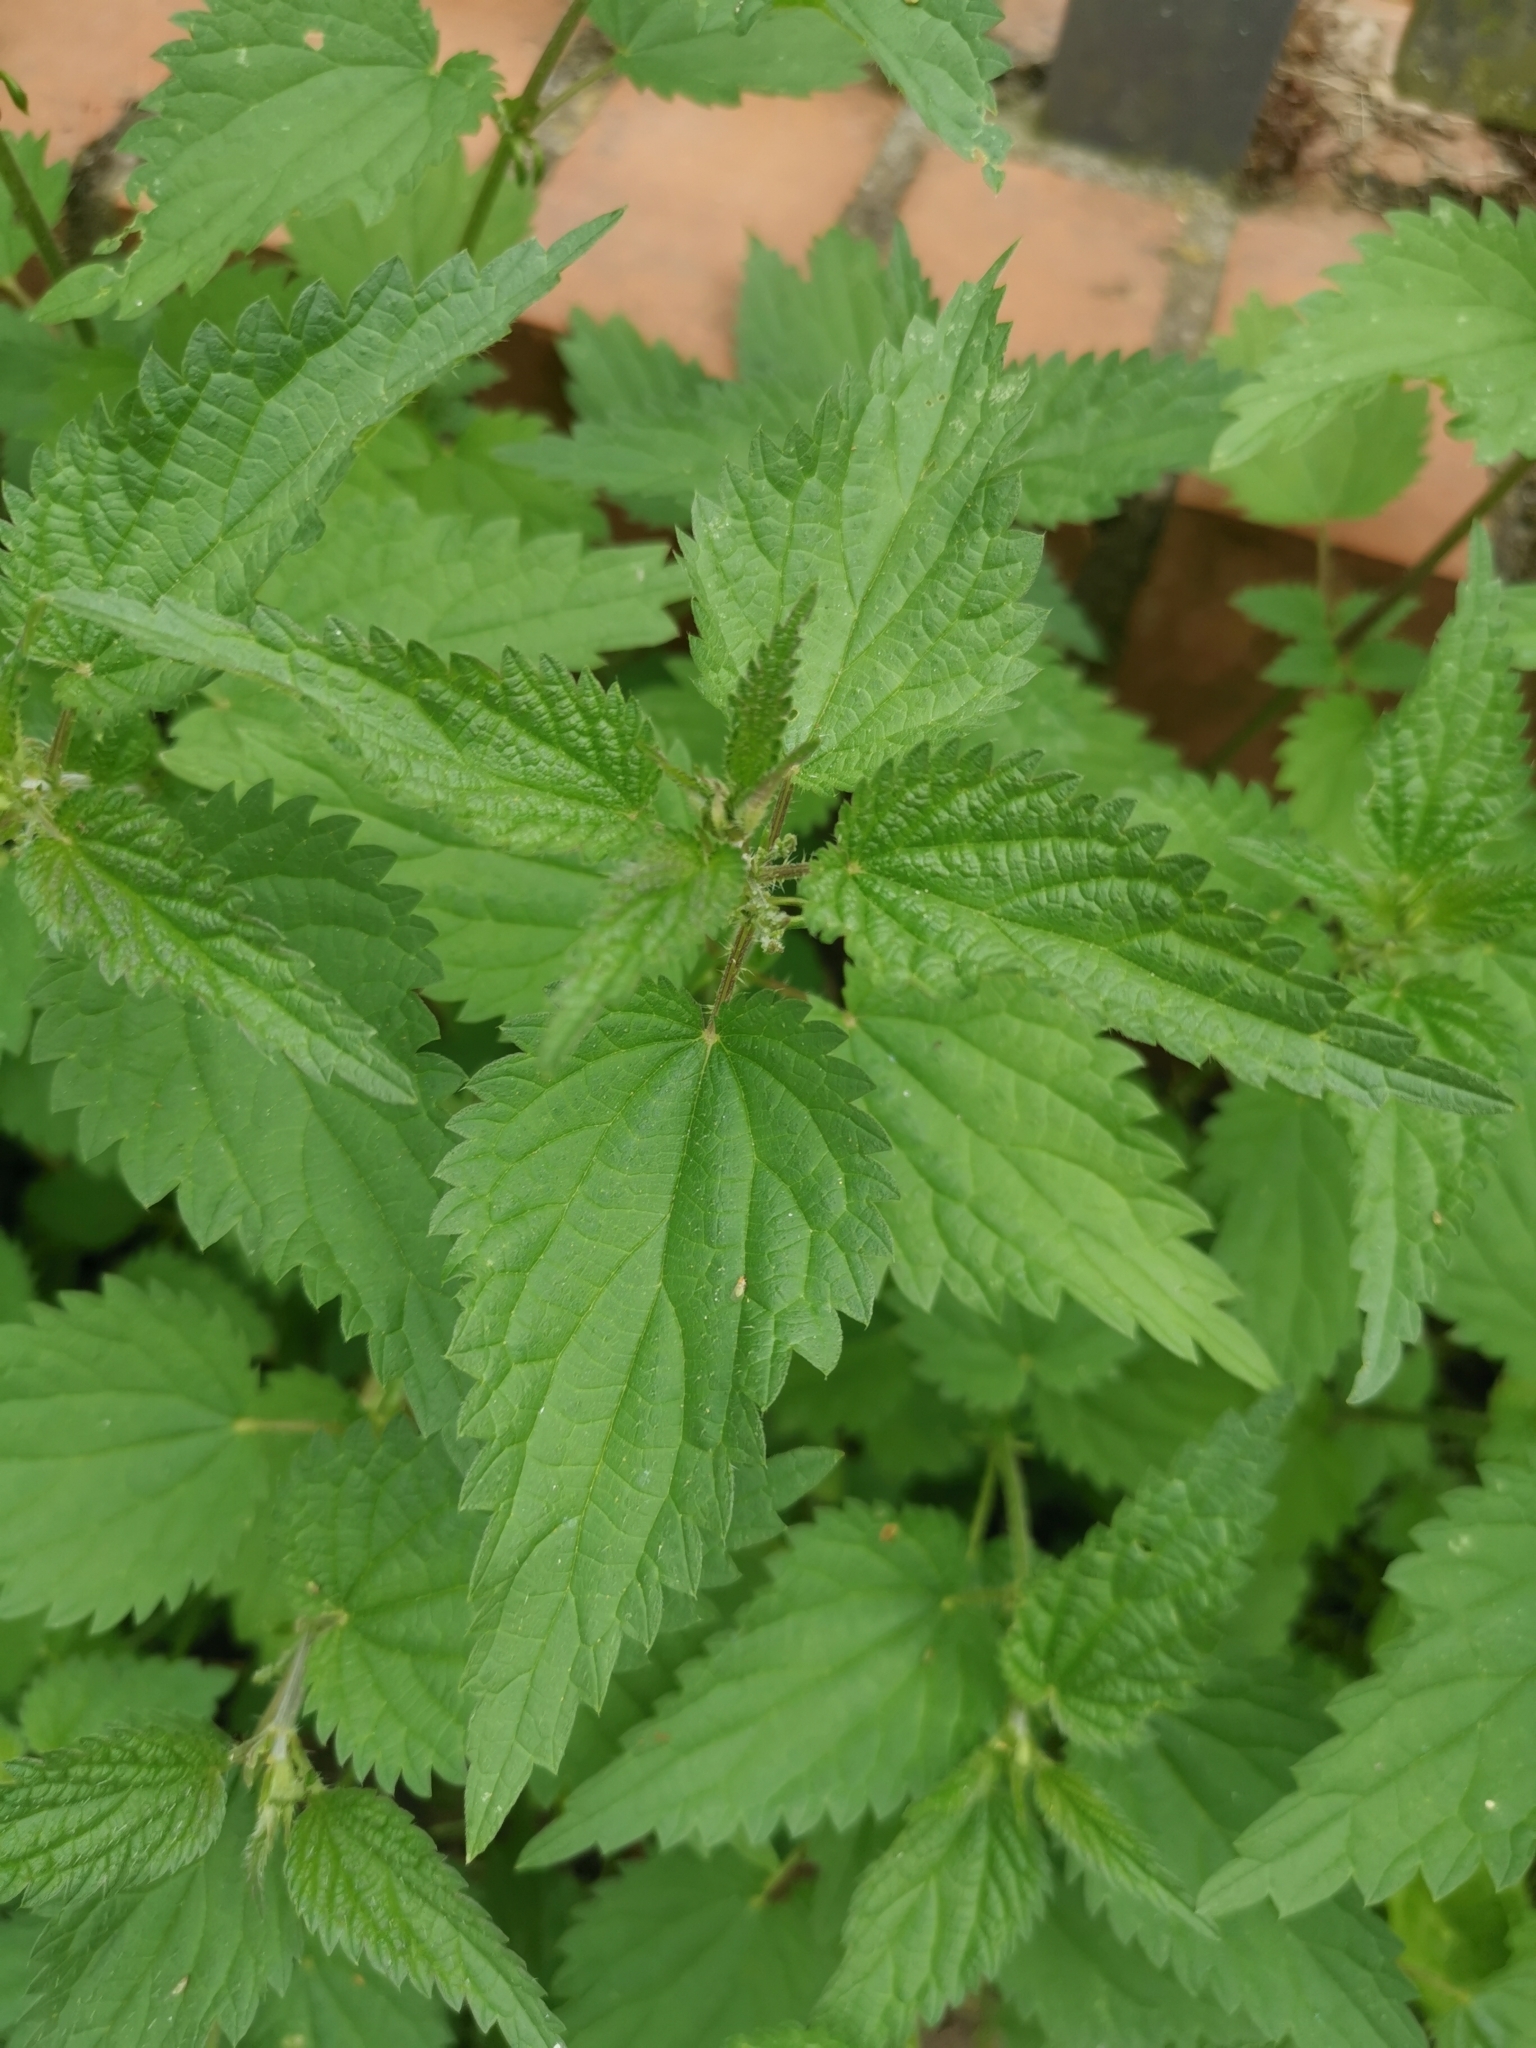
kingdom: Plantae
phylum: Tracheophyta
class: Magnoliopsida
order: Rosales
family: Urticaceae
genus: Urtica
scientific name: Urtica dioica
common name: Common nettle
